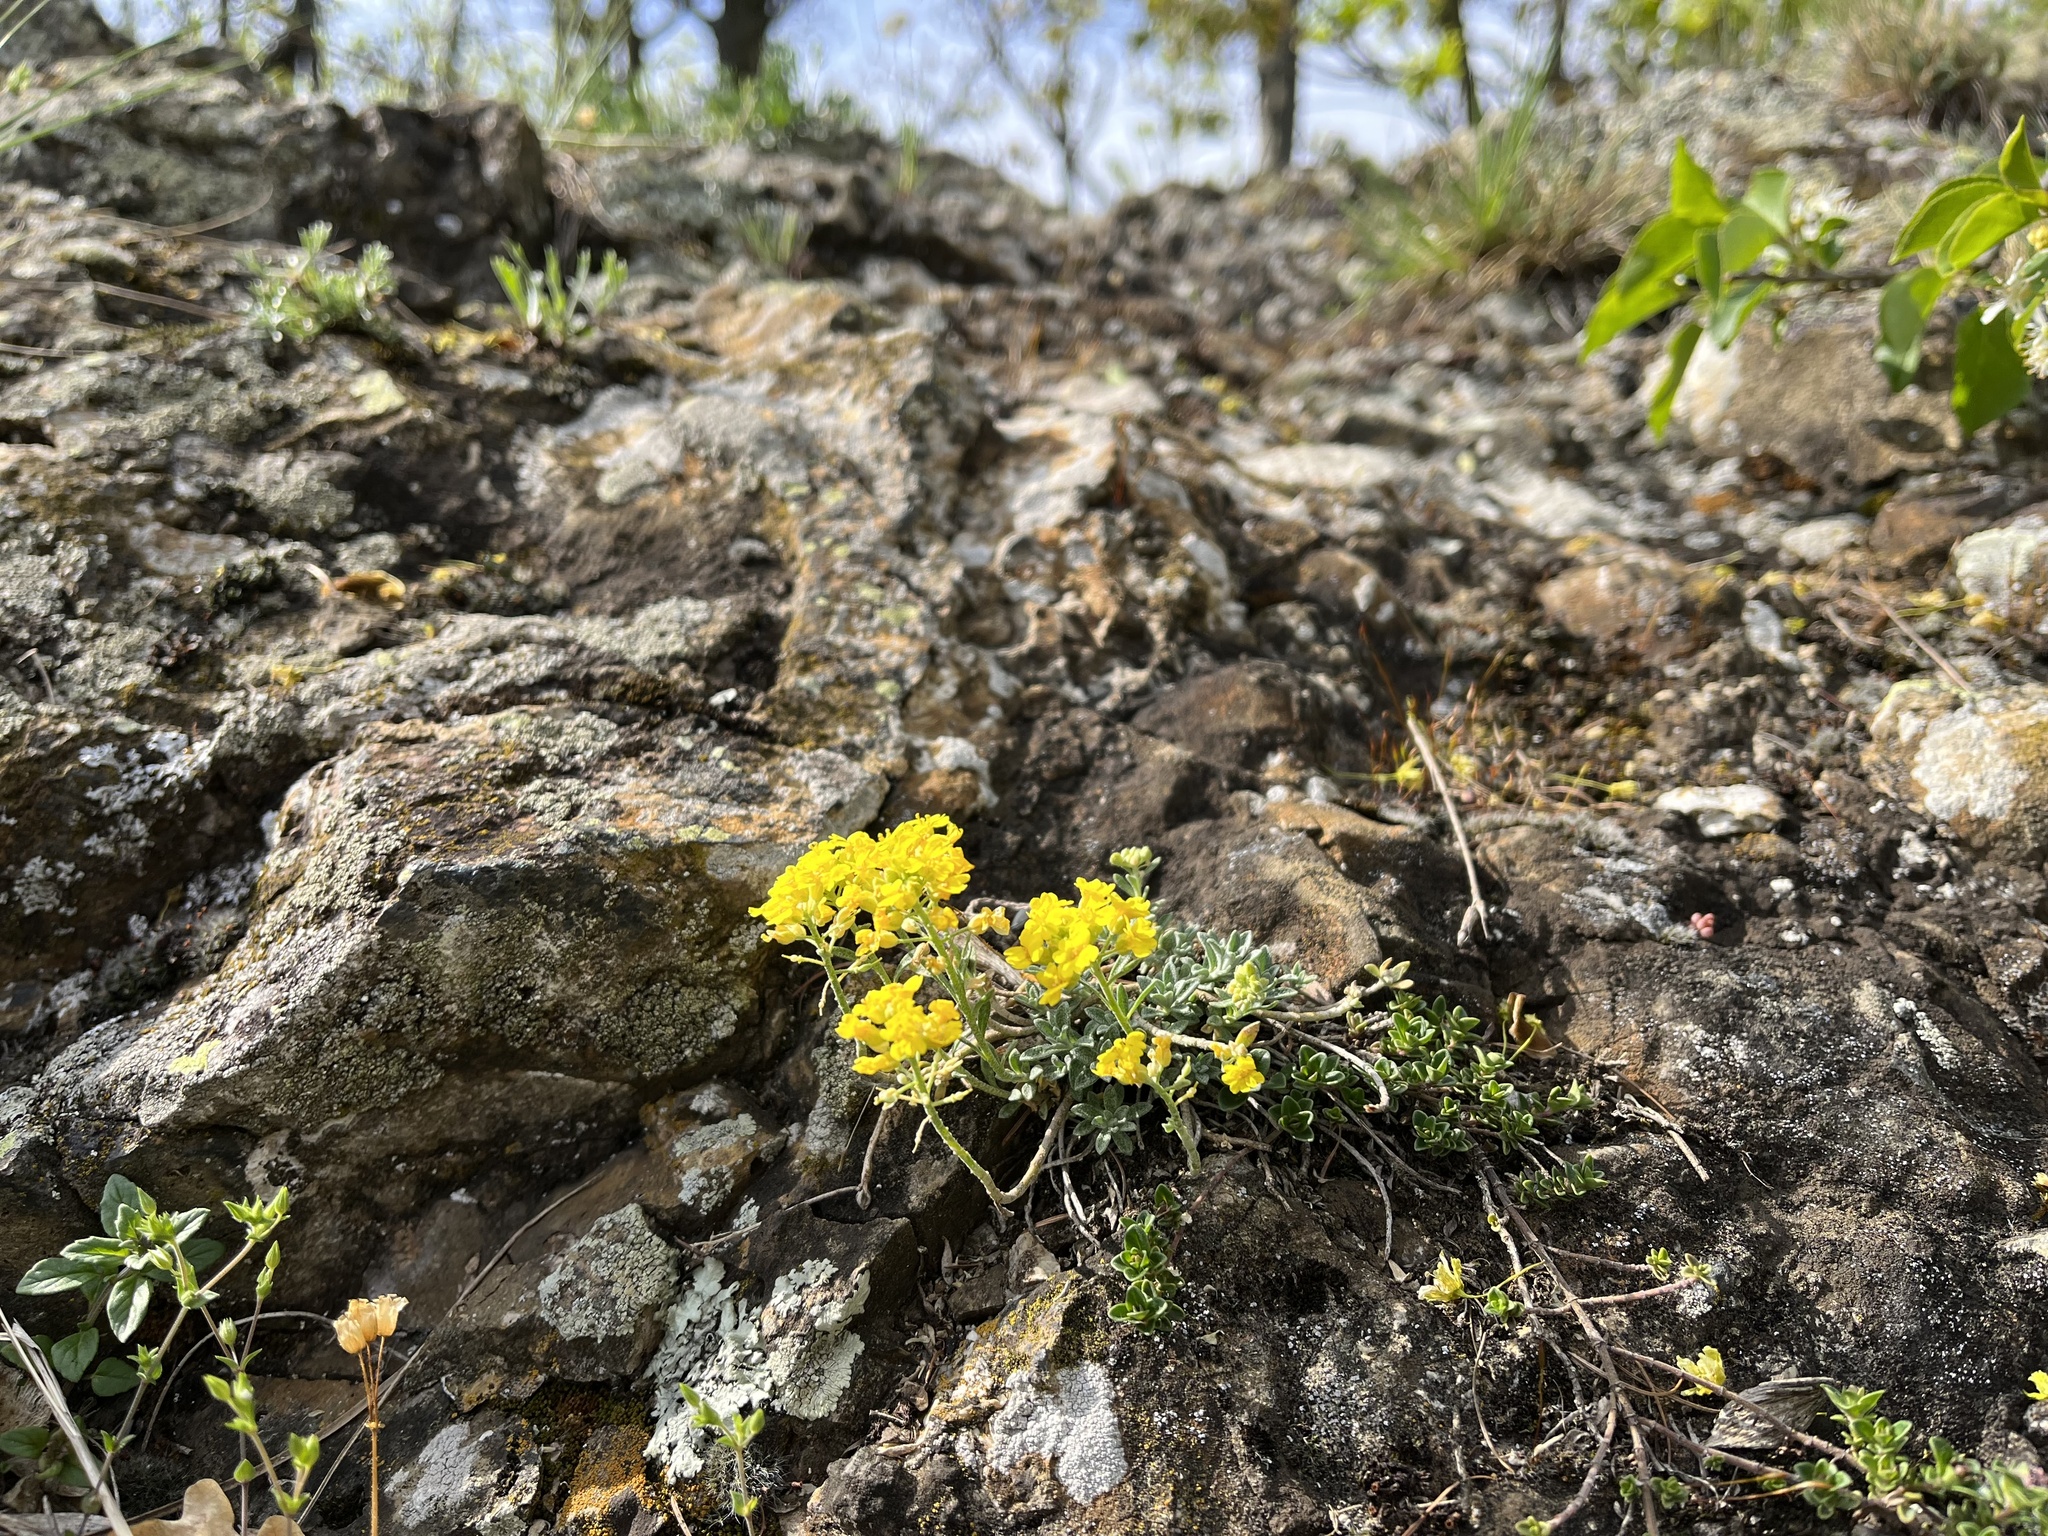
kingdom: Plantae
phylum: Tracheophyta
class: Magnoliopsida
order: Brassicales
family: Brassicaceae
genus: Alyssum
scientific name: Alyssum gmelinii
